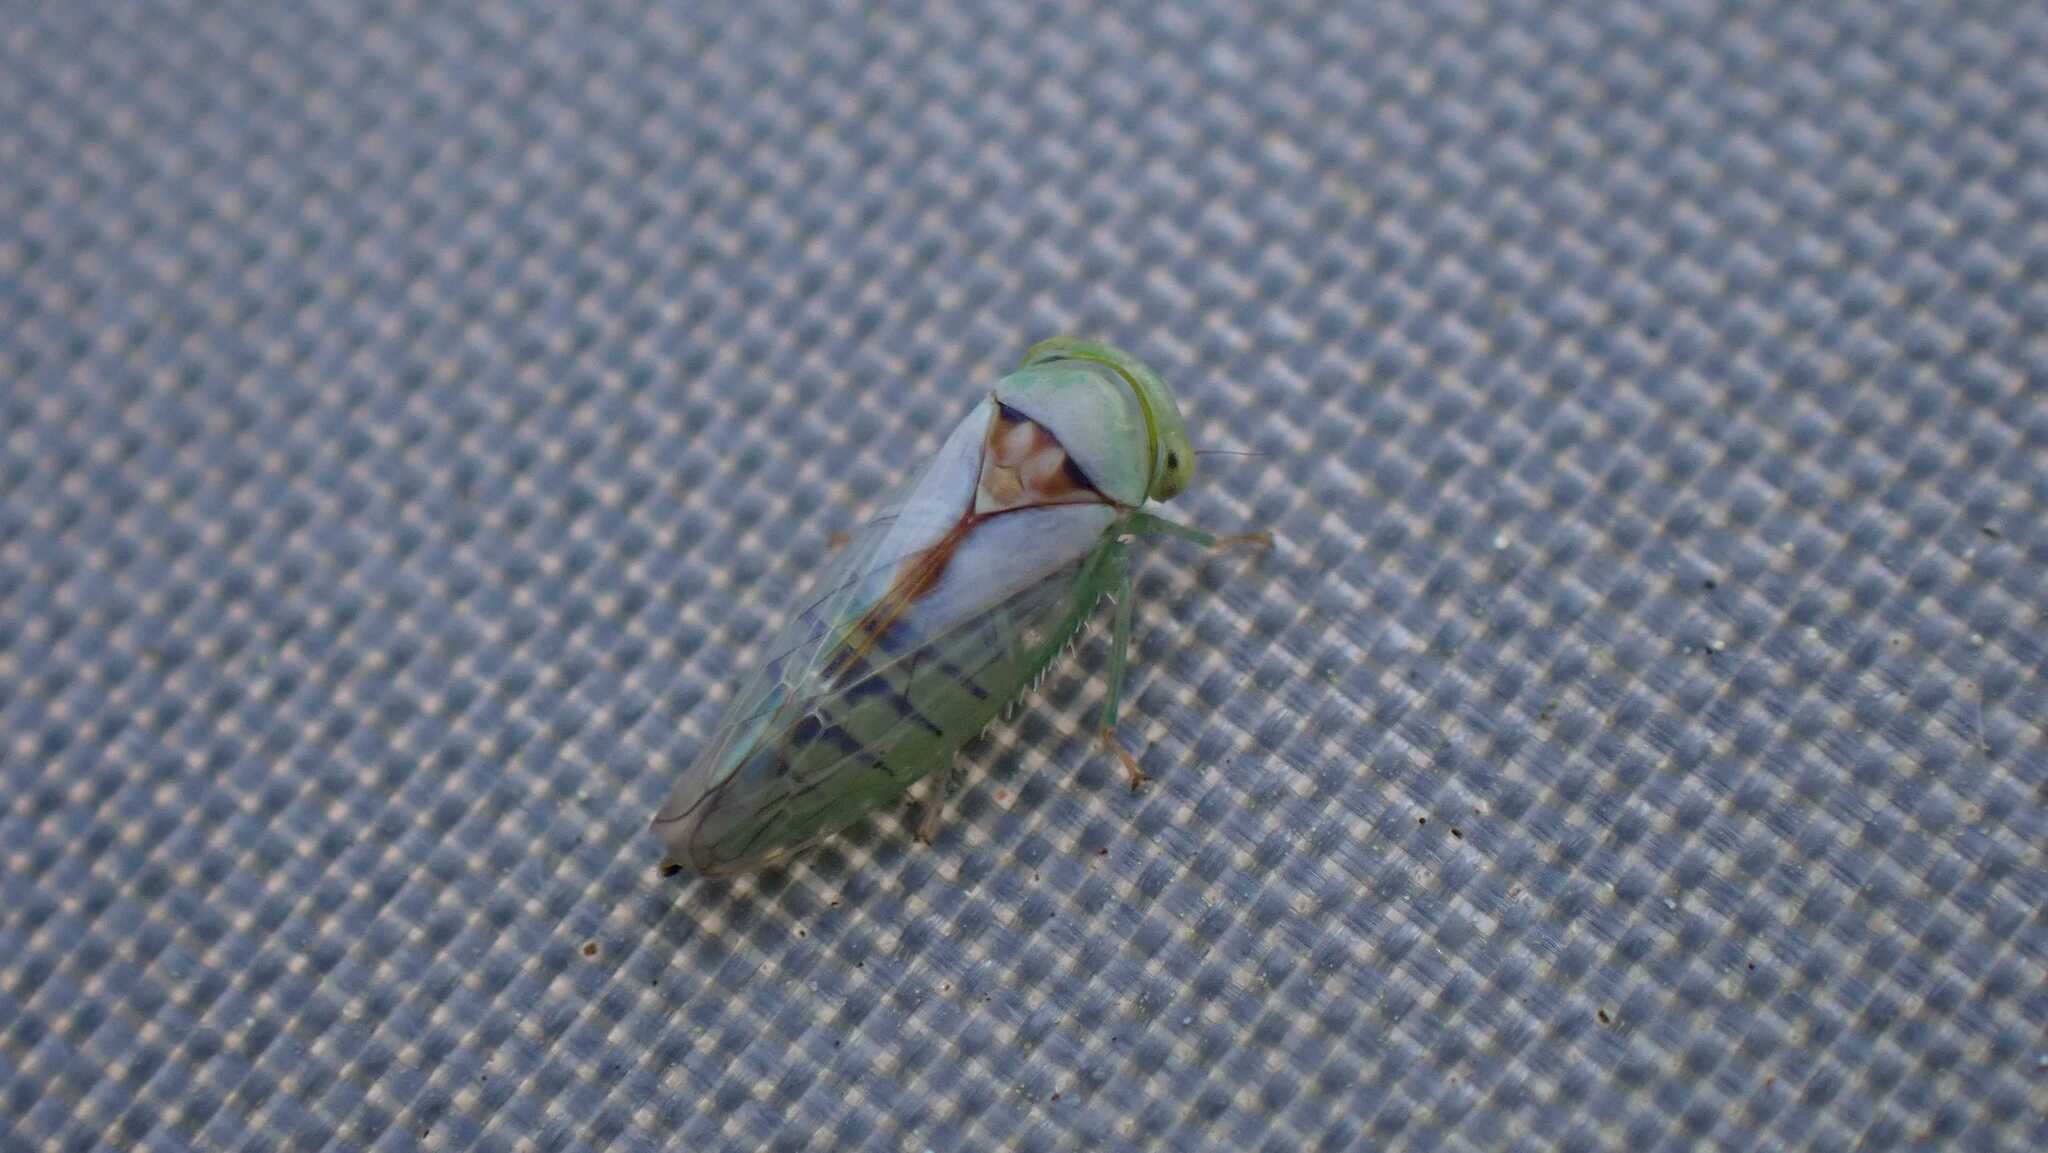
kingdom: Animalia
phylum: Arthropoda
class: Insecta
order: Hemiptera
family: Cicadellidae
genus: Viridicerus
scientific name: Viridicerus ustulatus
